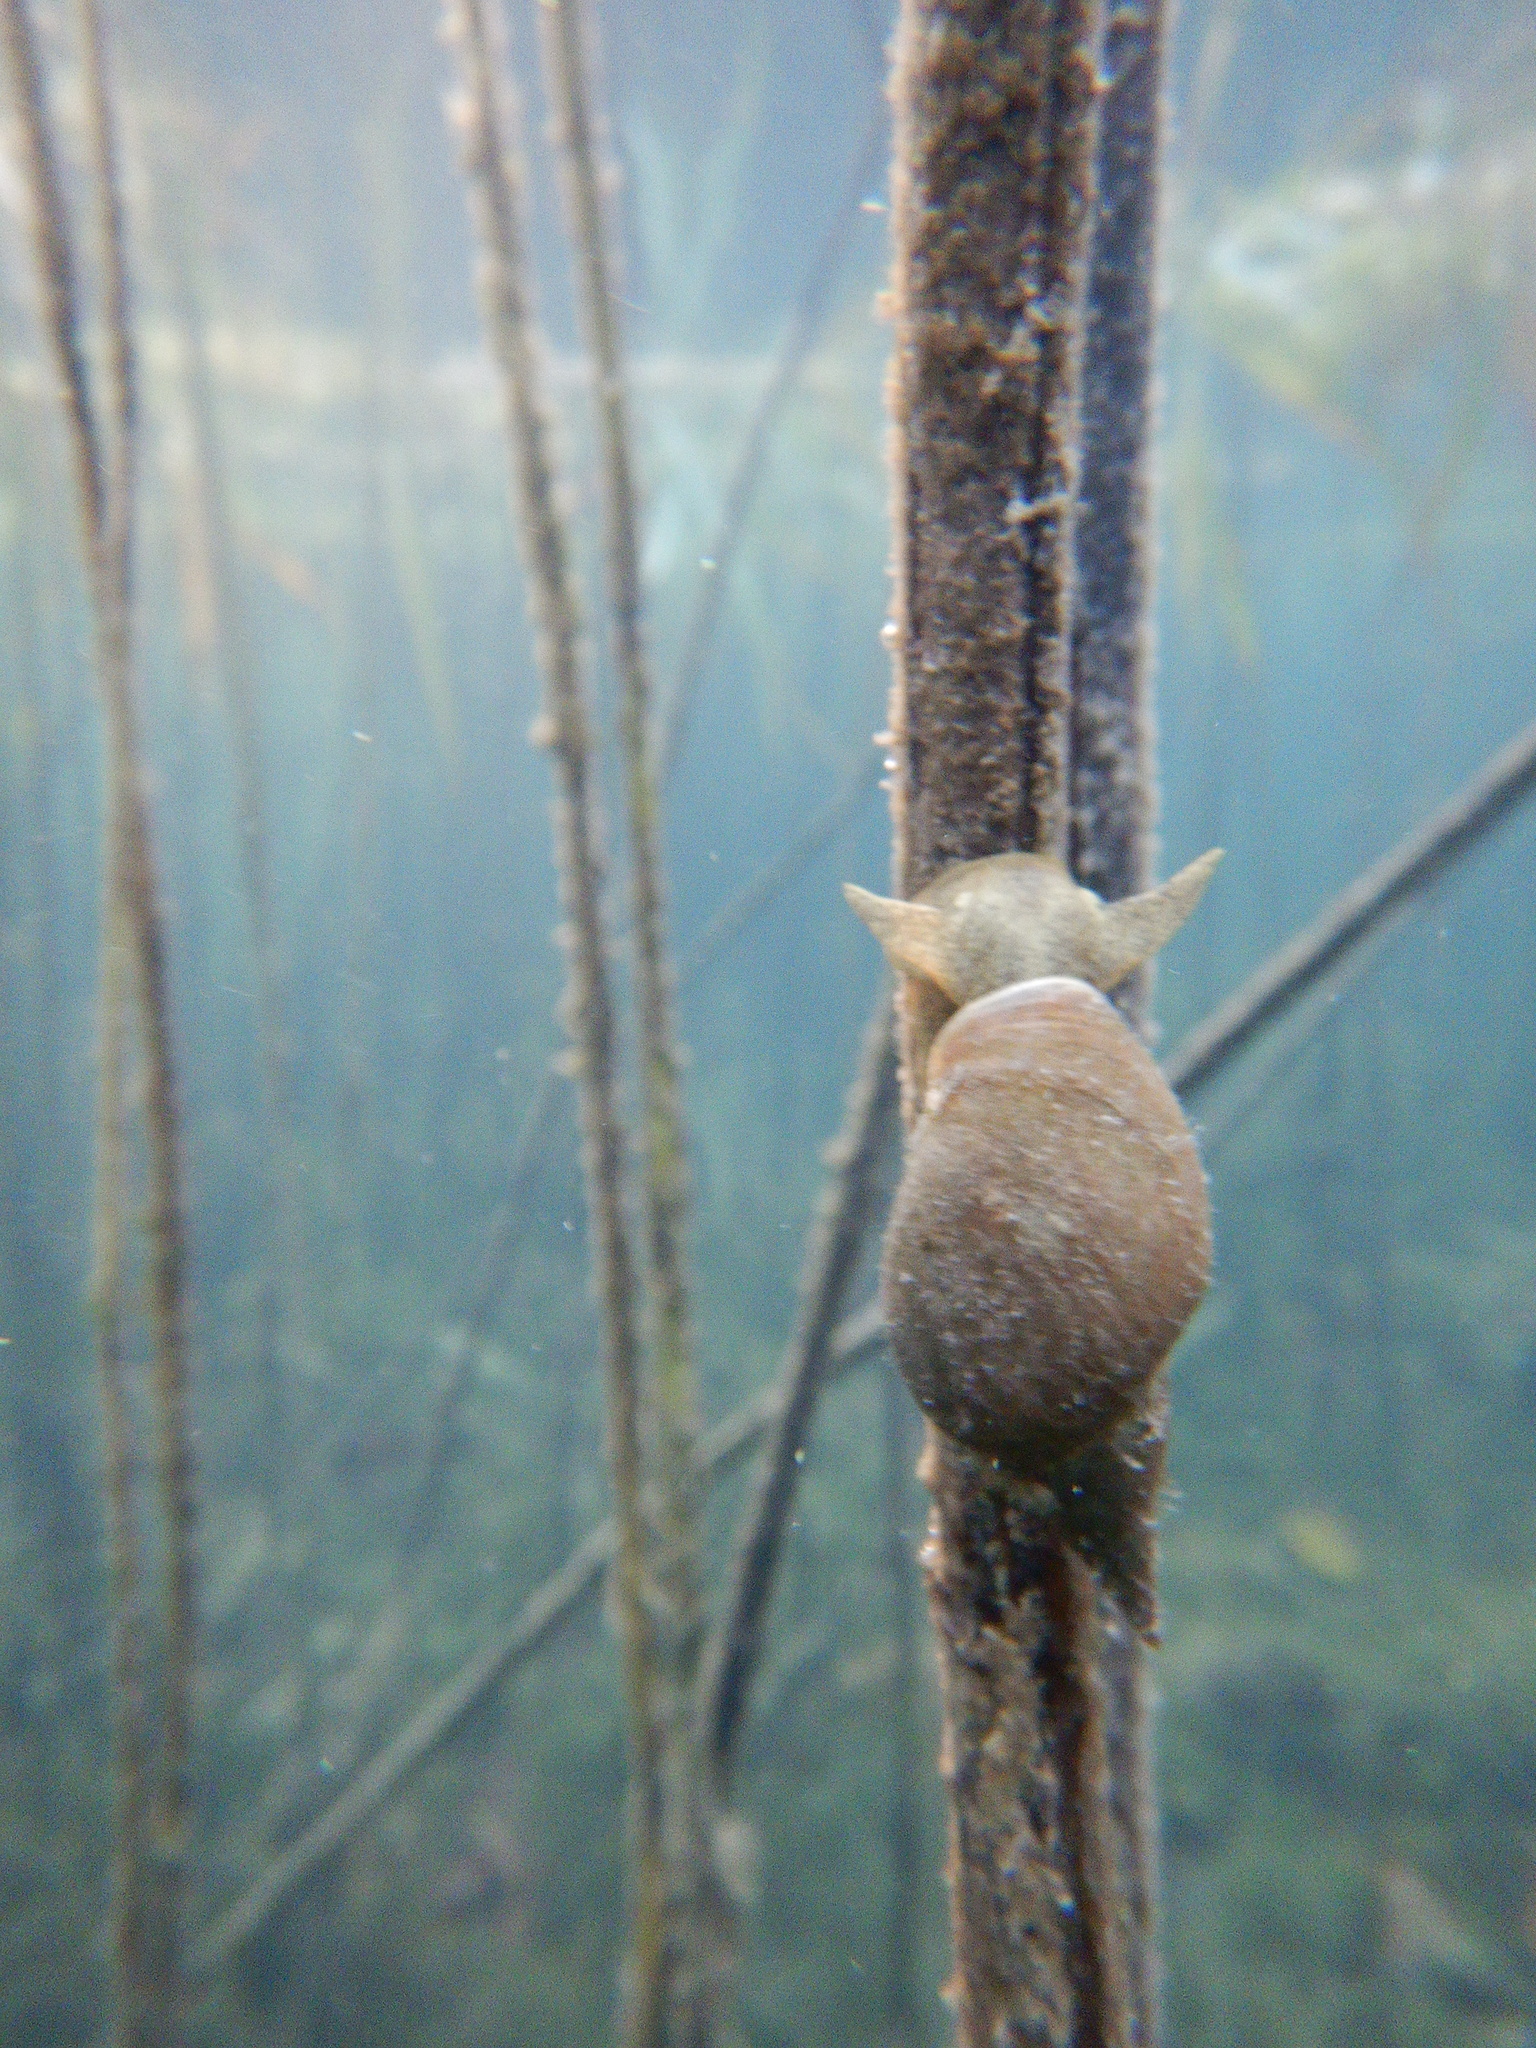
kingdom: Animalia
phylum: Mollusca
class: Gastropoda
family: Lymnaeidae
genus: Lymnaea
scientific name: Lymnaea stagnalis
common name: Great pond snail
